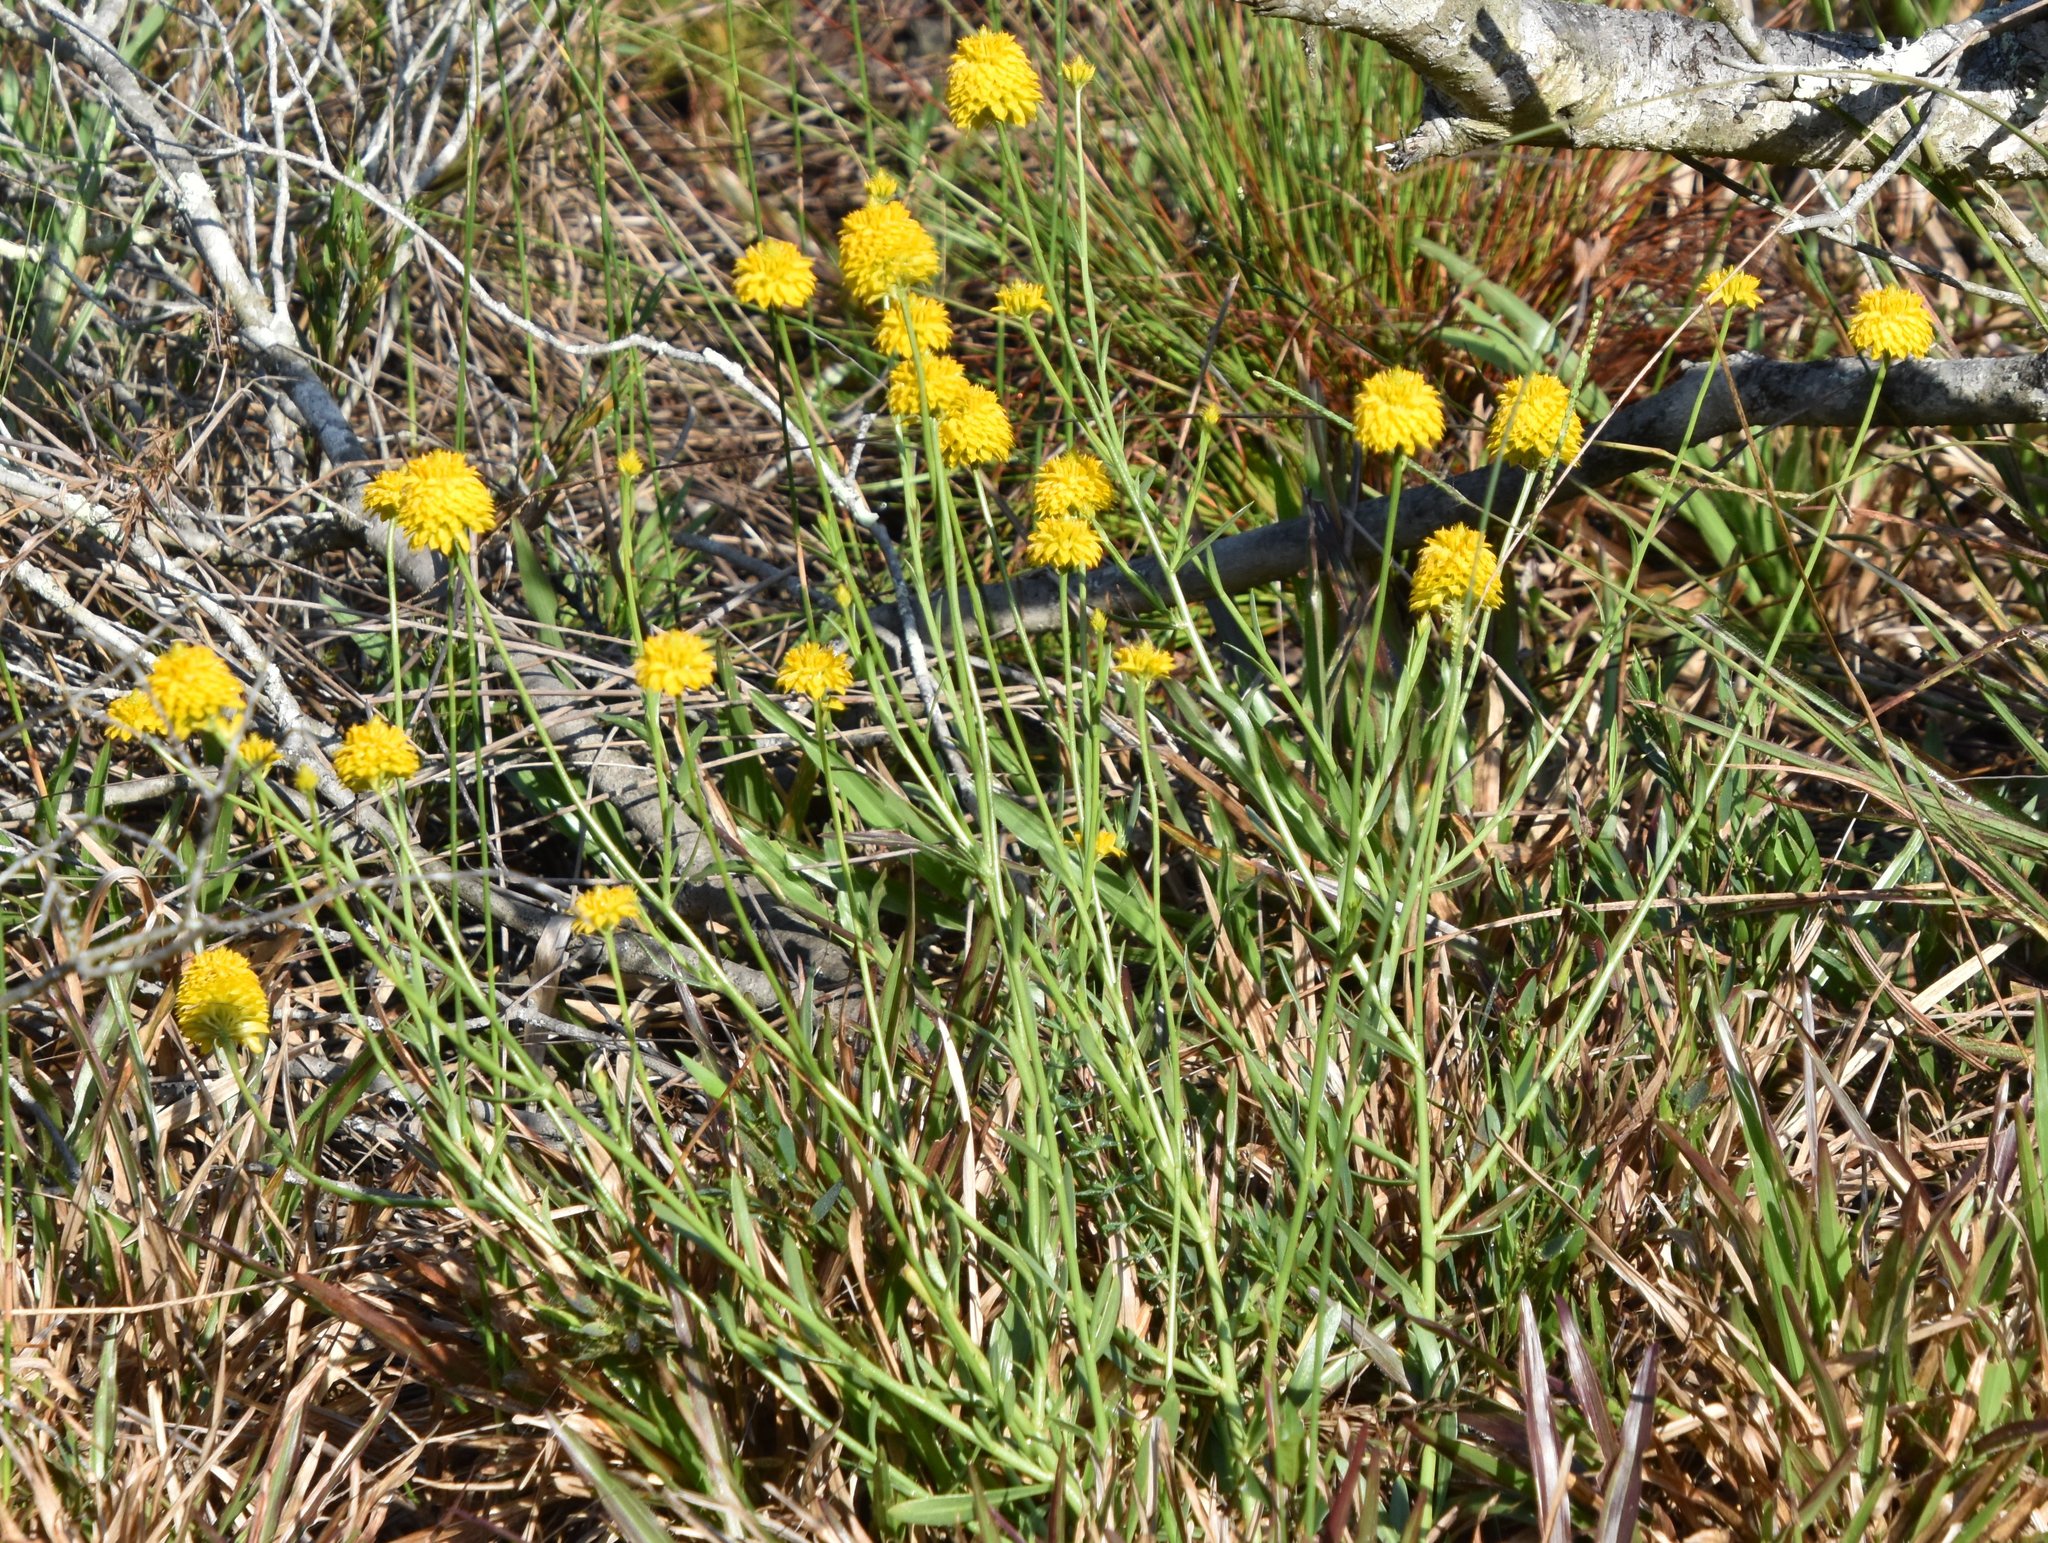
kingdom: Plantae
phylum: Tracheophyta
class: Magnoliopsida
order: Fabales
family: Polygalaceae
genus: Polygala
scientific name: Polygala rugelii
